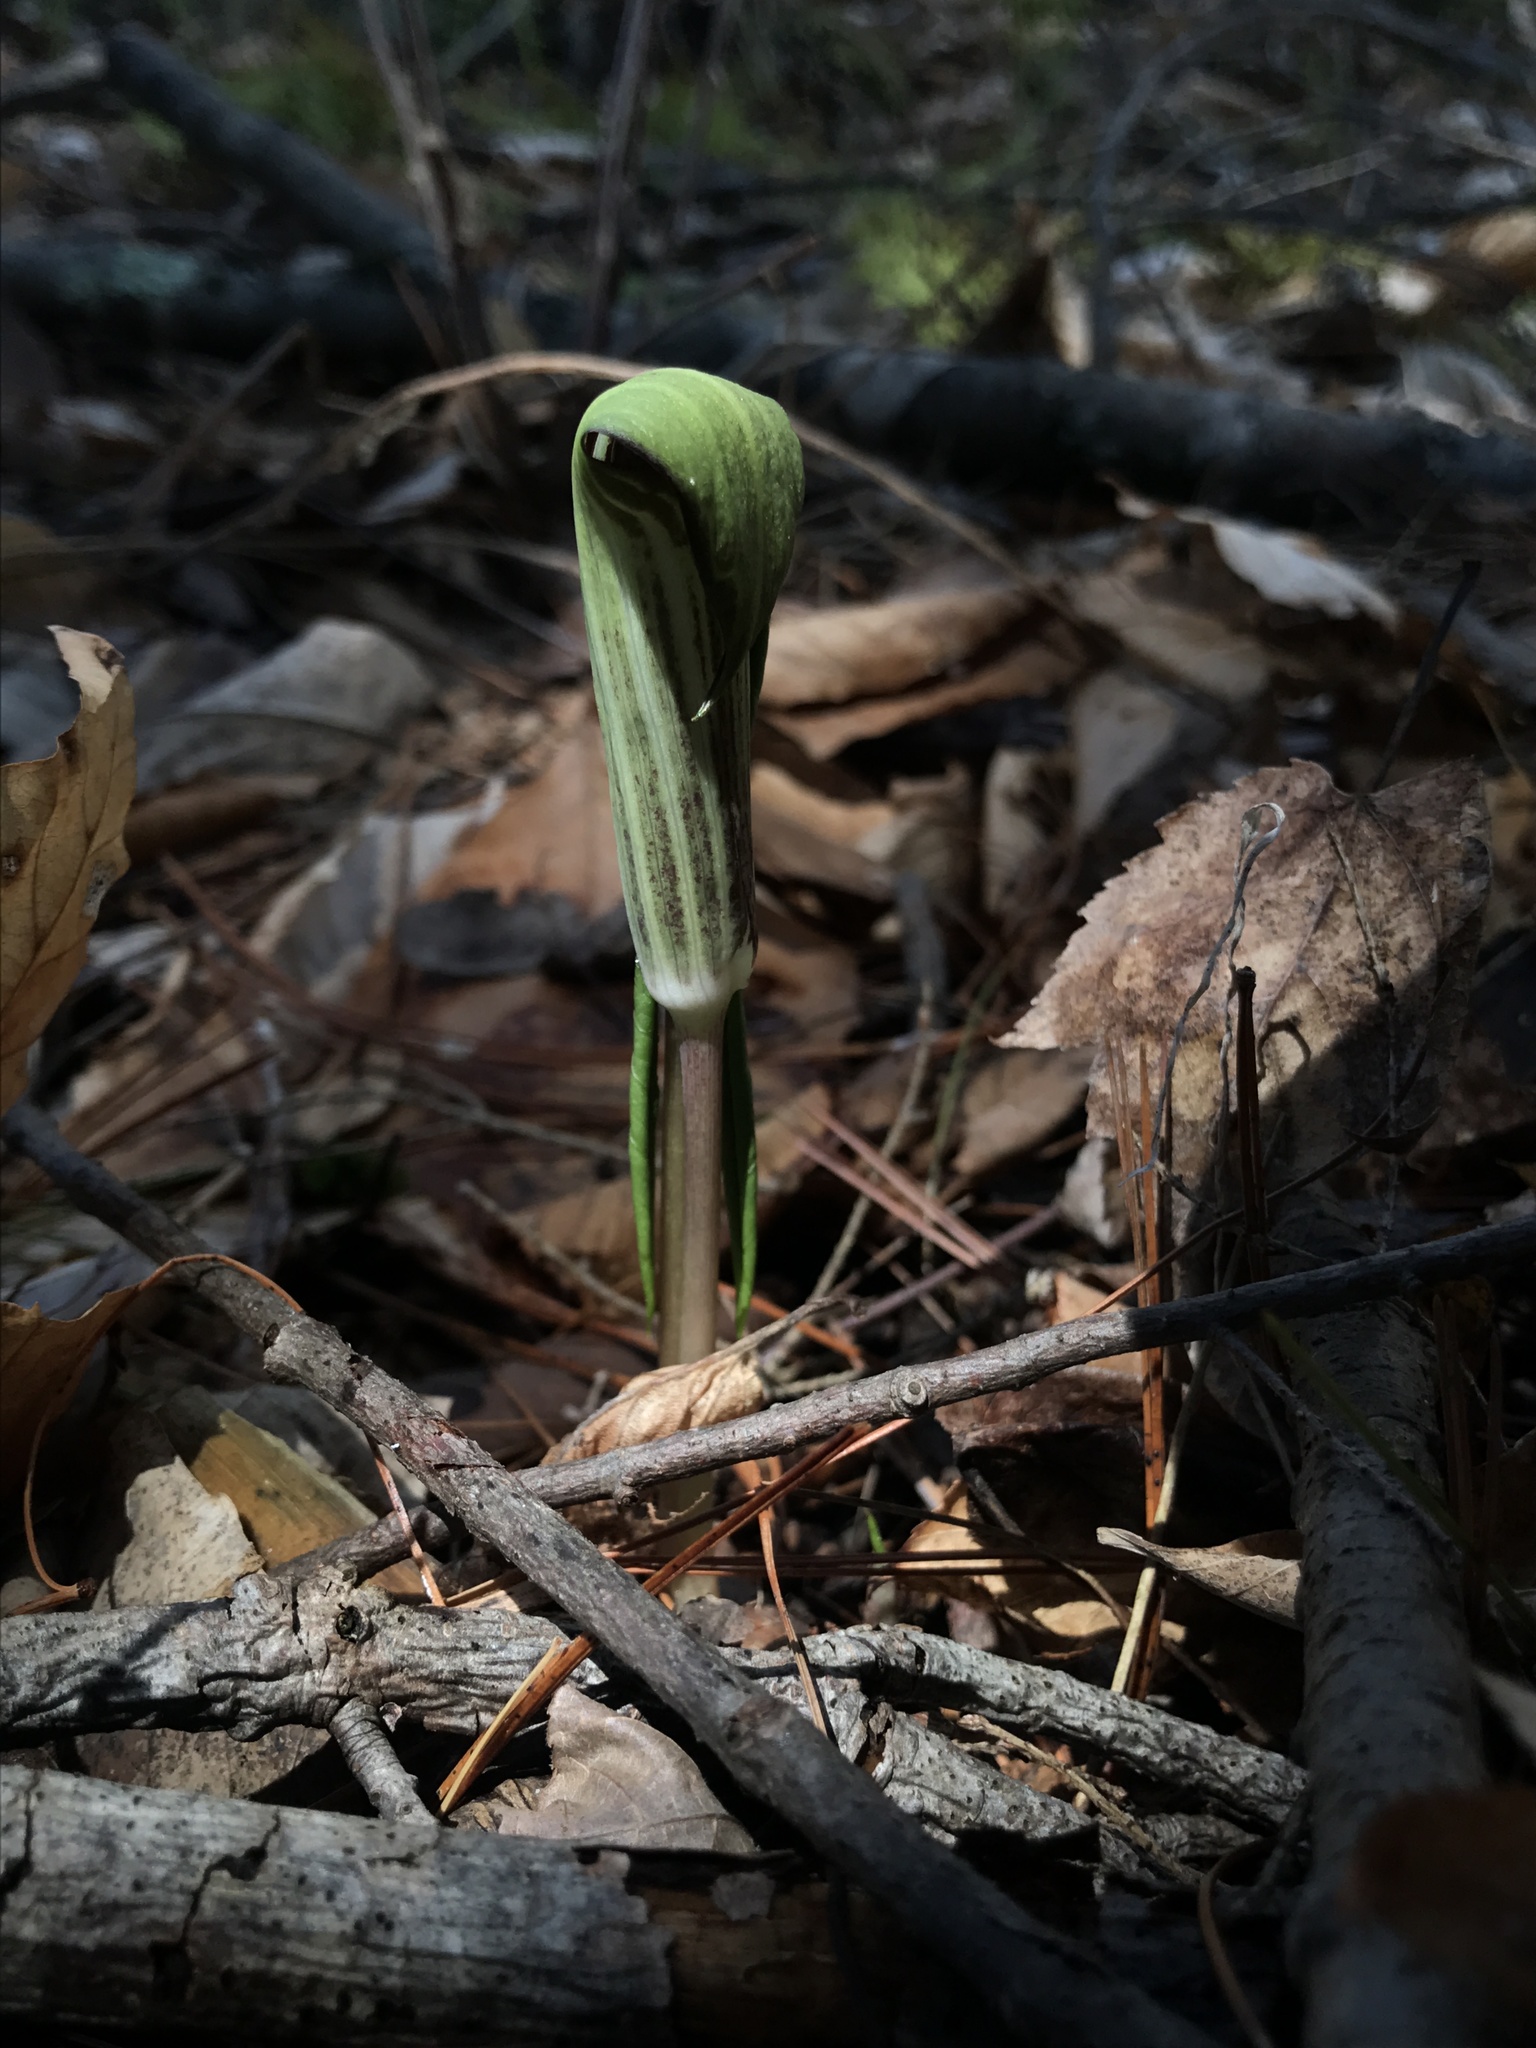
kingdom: Plantae
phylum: Tracheophyta
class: Liliopsida
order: Alismatales
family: Araceae
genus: Arisaema
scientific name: Arisaema triphyllum
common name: Jack-in-the-pulpit
